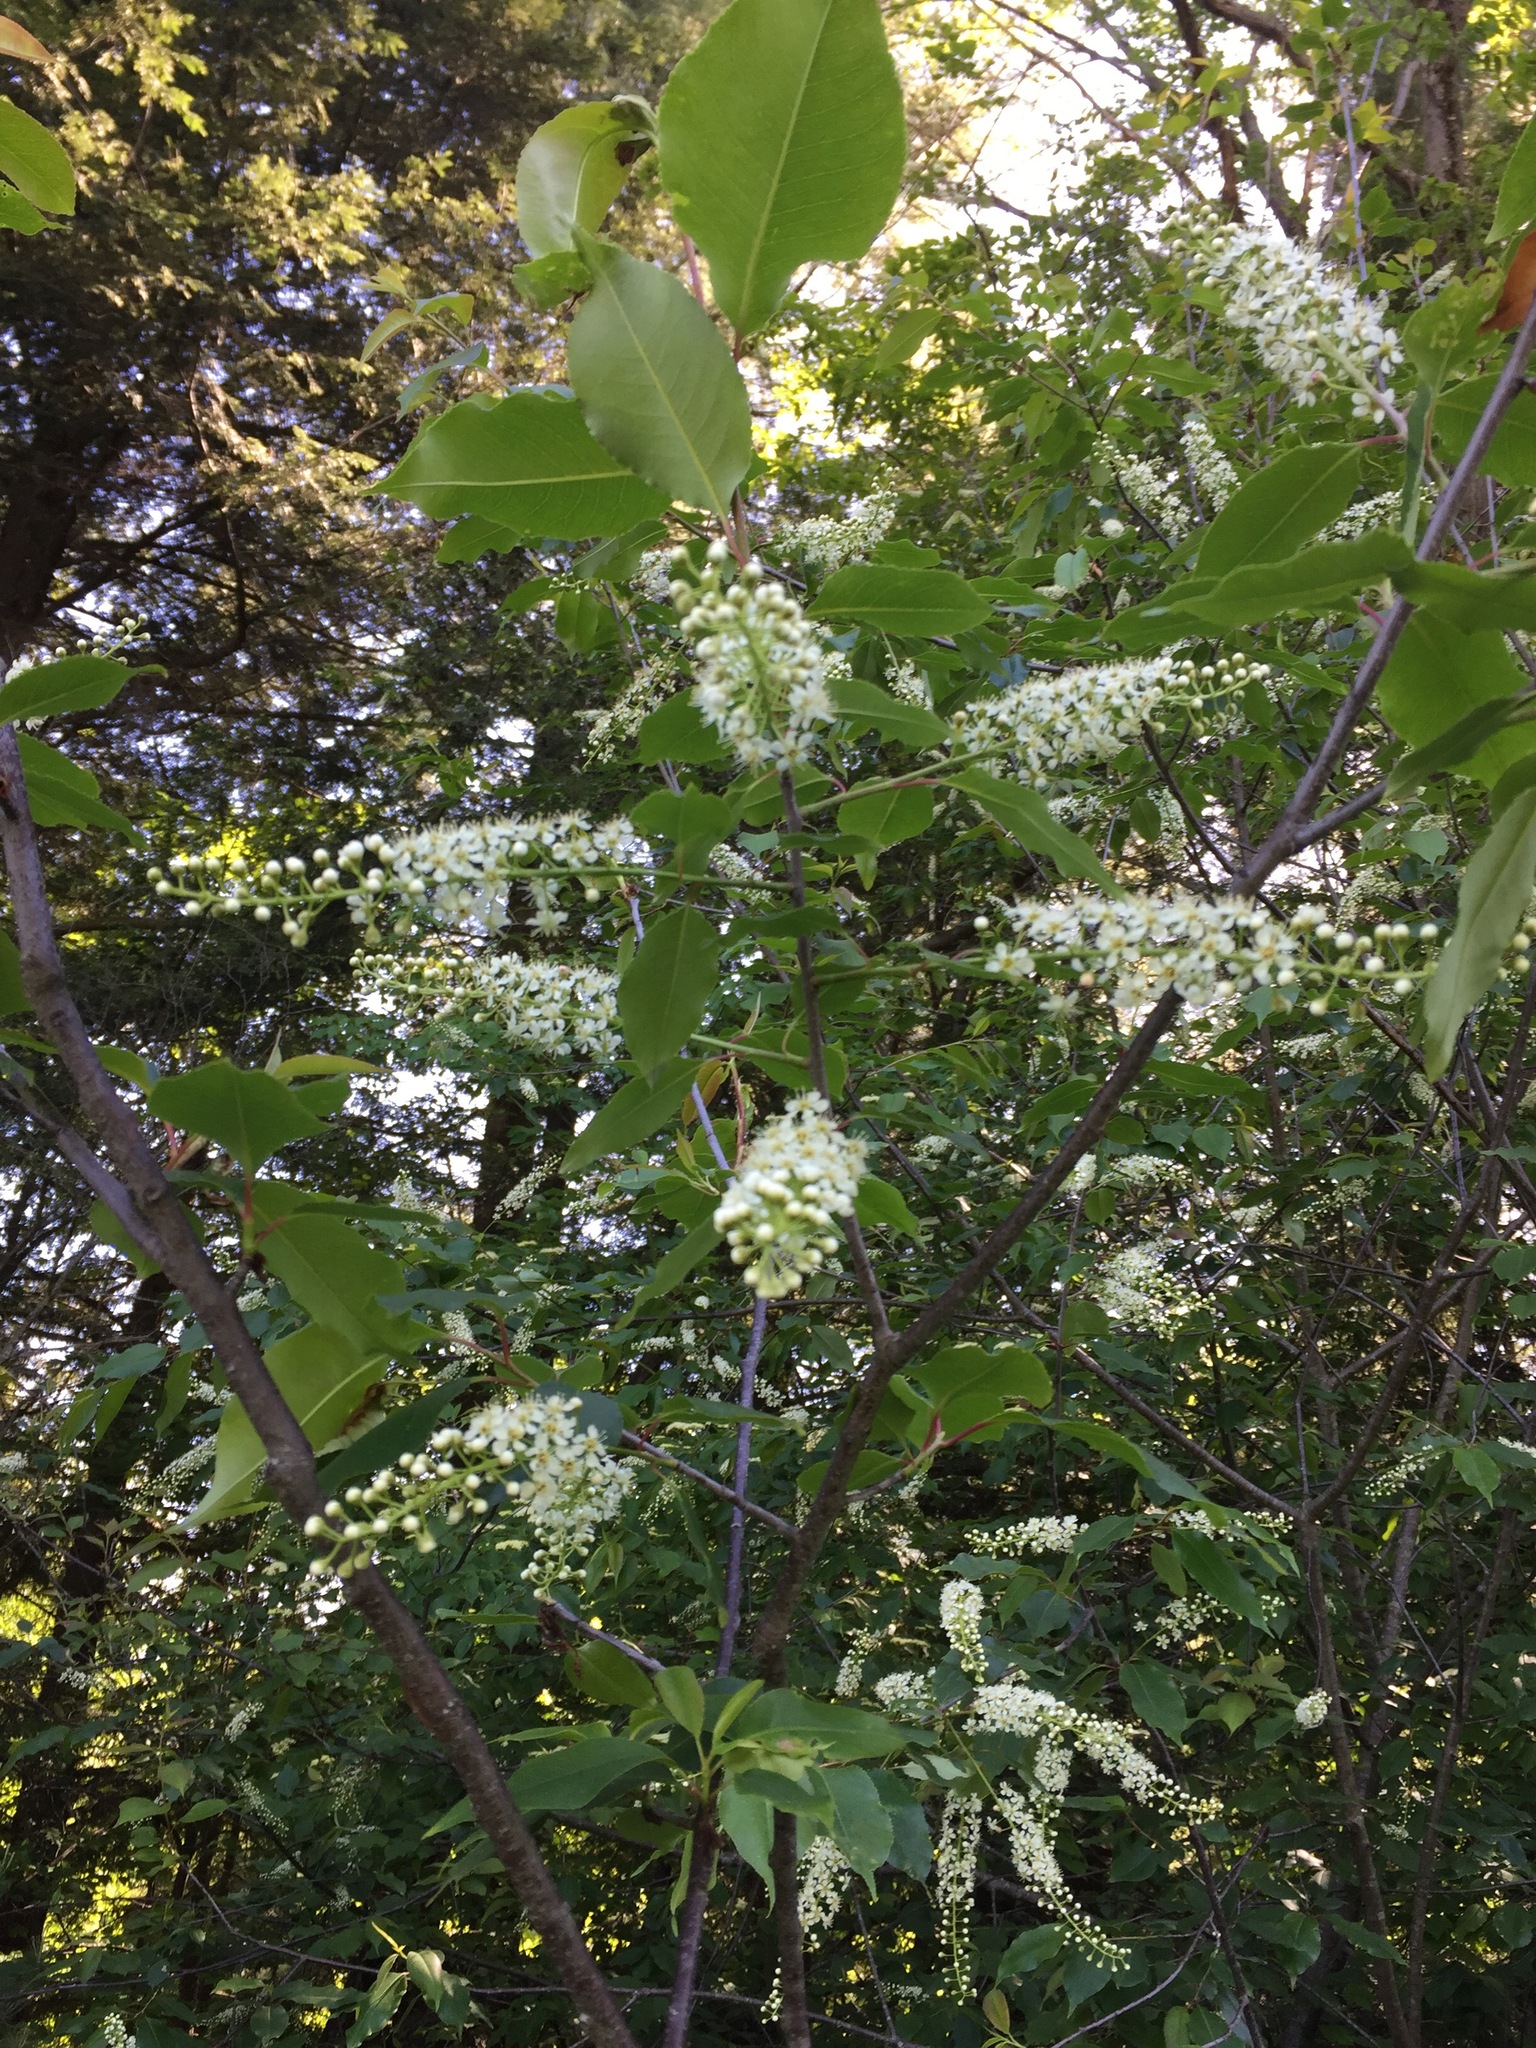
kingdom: Plantae
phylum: Tracheophyta
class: Magnoliopsida
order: Rosales
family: Rosaceae
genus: Prunus
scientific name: Prunus serotina
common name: Black cherry
